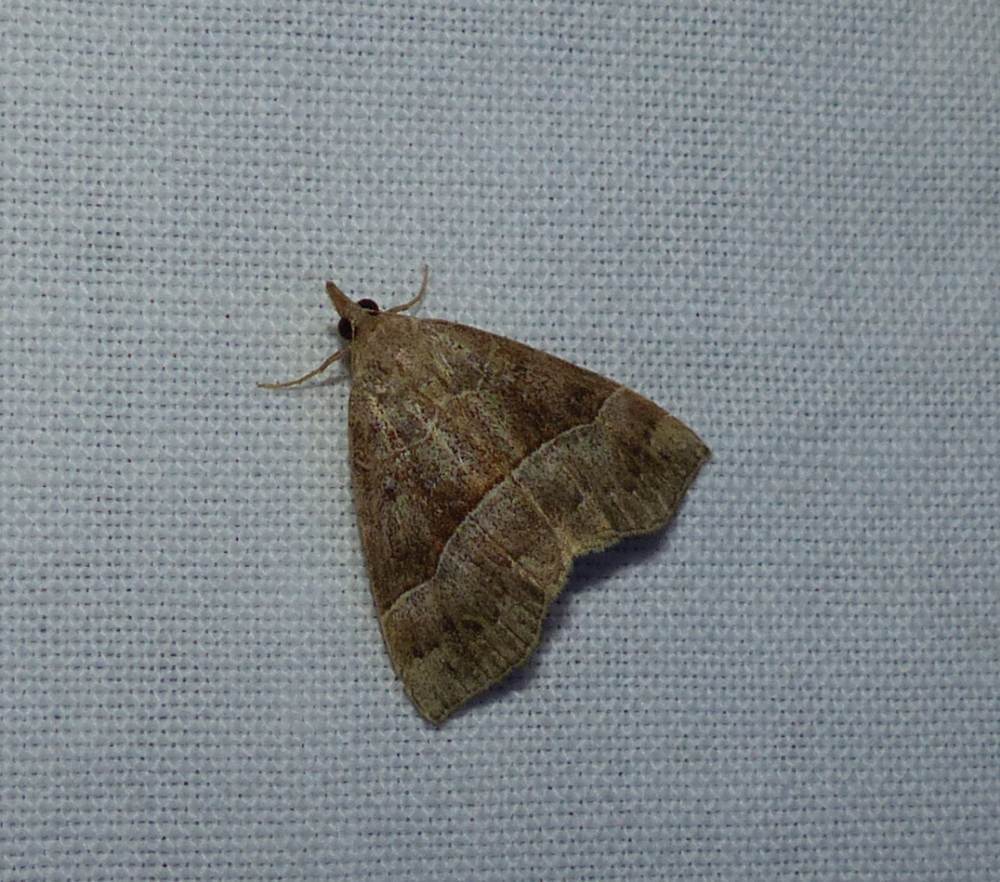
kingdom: Animalia
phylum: Arthropoda
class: Insecta
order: Lepidoptera
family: Erebidae
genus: Hypena
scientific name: Hypena deceptalis
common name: Deceptive snout
